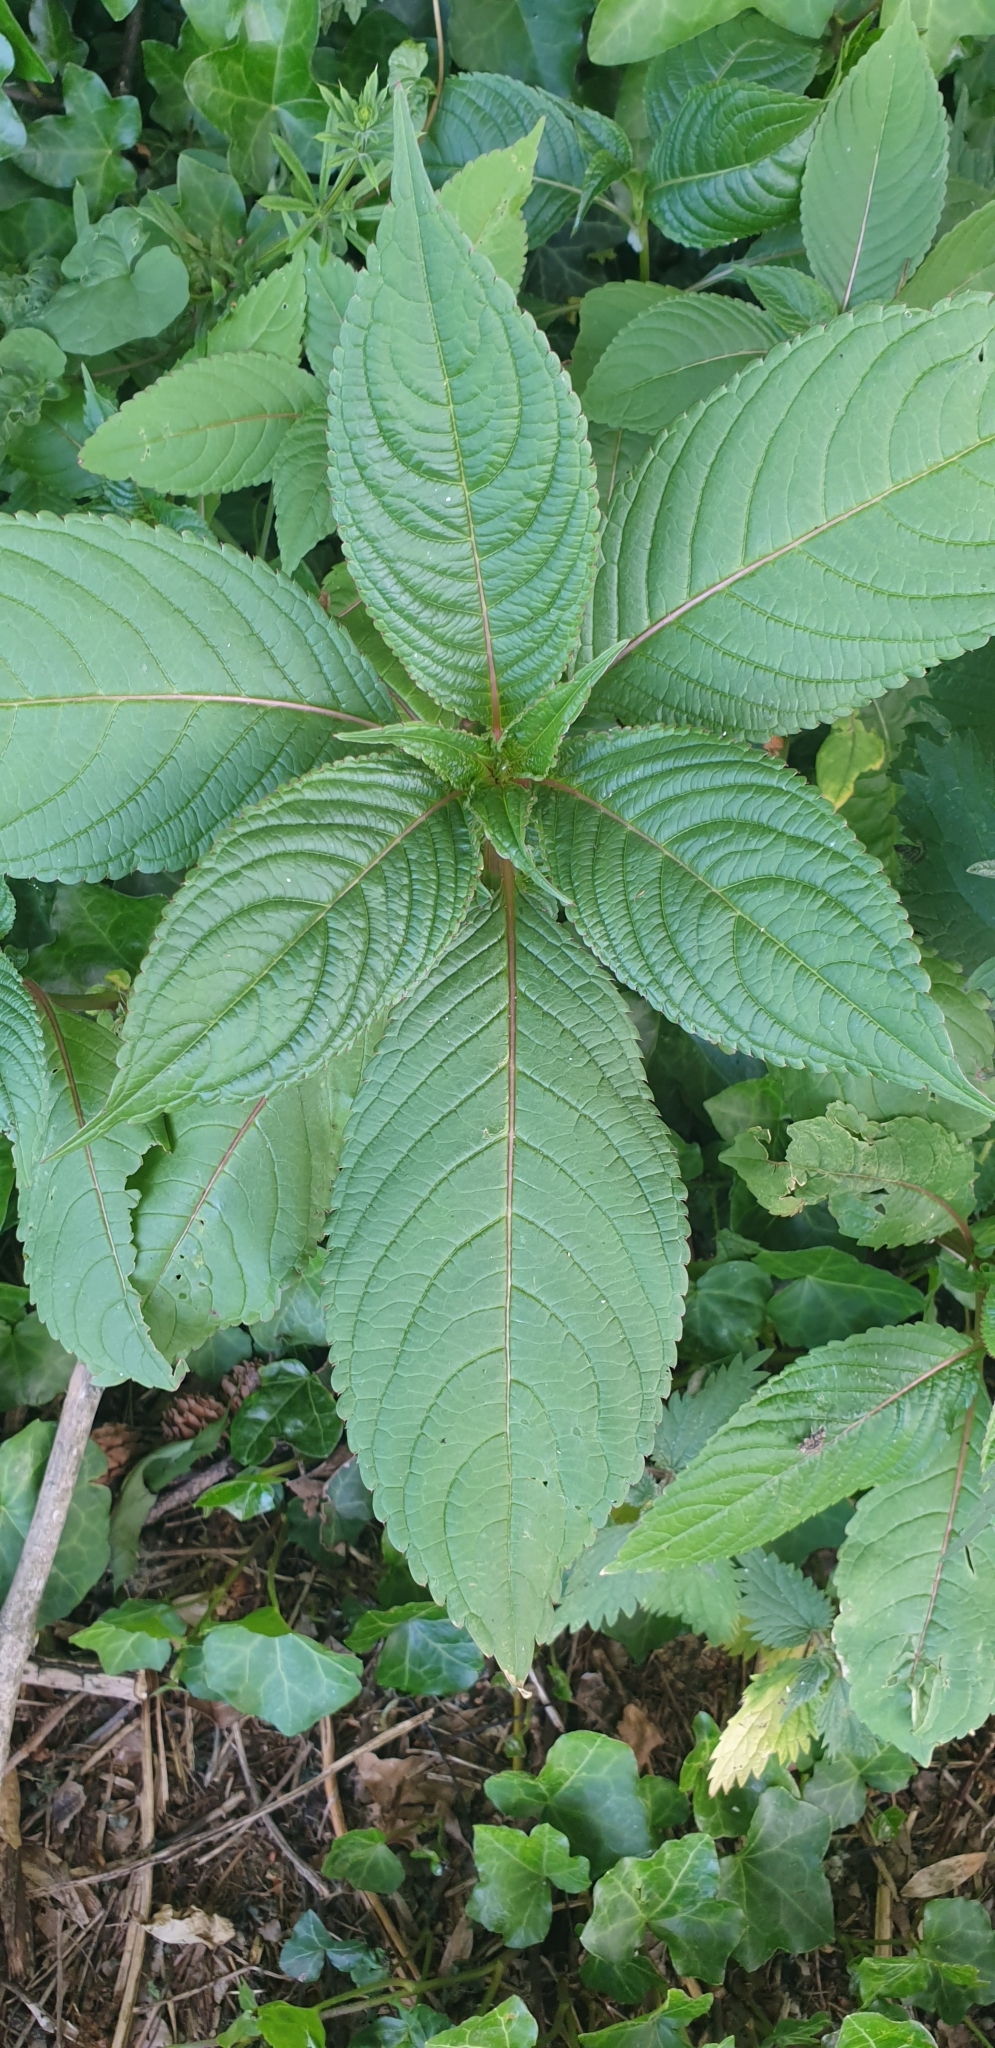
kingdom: Plantae
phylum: Tracheophyta
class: Magnoliopsida
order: Ericales
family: Balsaminaceae
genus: Impatiens
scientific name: Impatiens glandulifera
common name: Himalayan balsam
